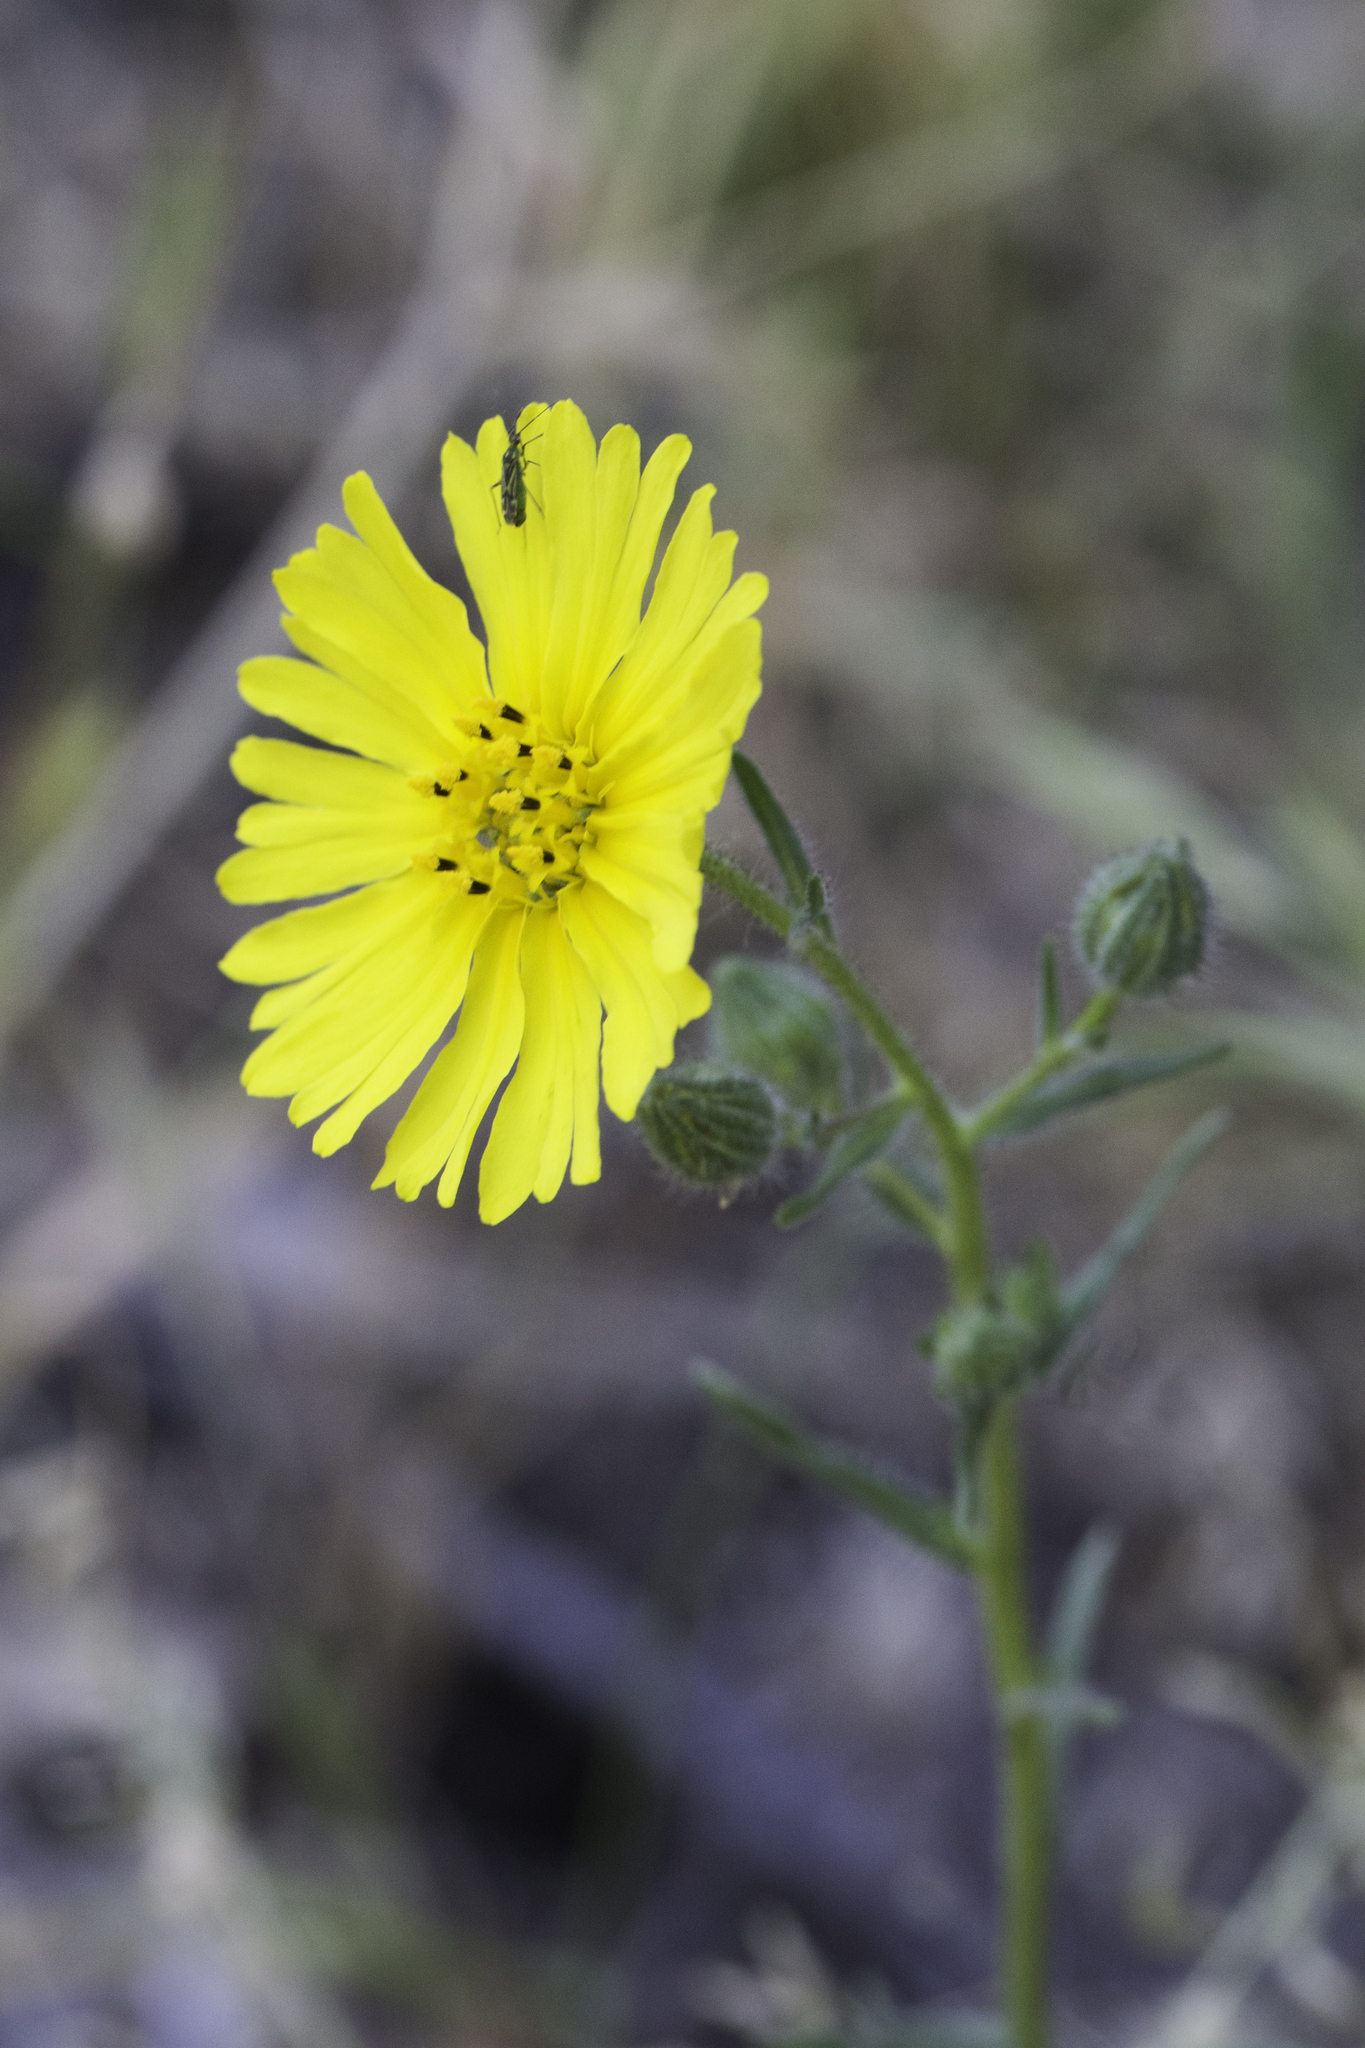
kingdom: Plantae
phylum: Tracheophyta
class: Magnoliopsida
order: Asterales
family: Asteraceae
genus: Madia
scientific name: Madia elegans
